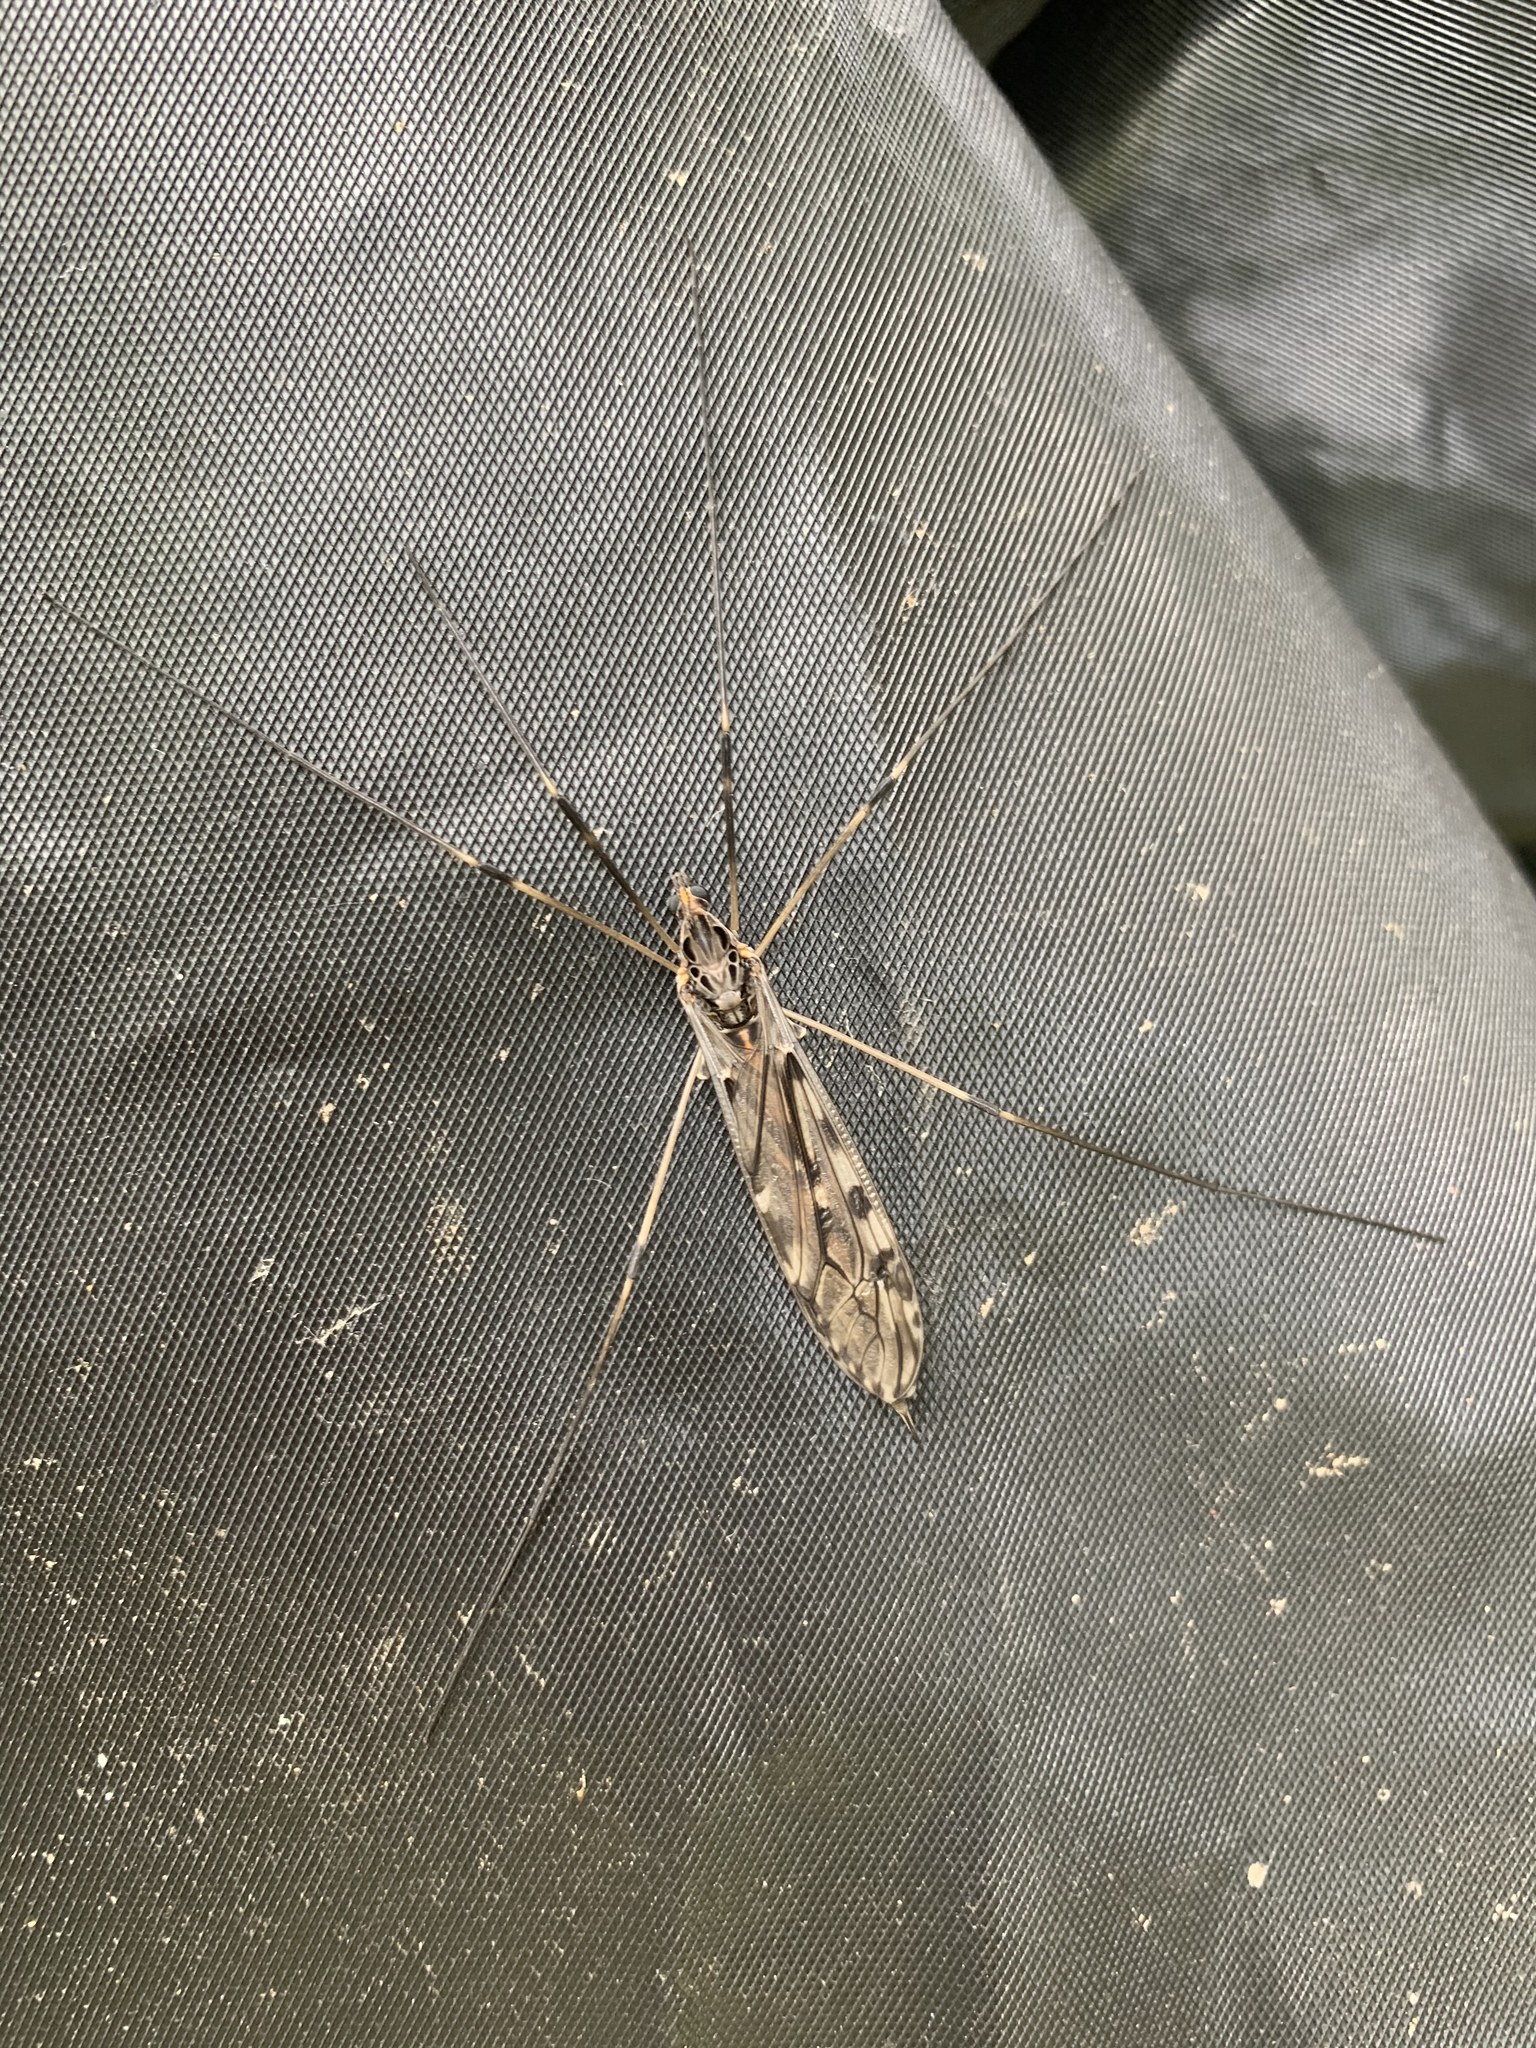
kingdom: Animalia
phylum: Arthropoda
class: Insecta
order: Diptera
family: Tipulidae
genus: Tipula
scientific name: Tipula abdominalis
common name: Giant crane fly
